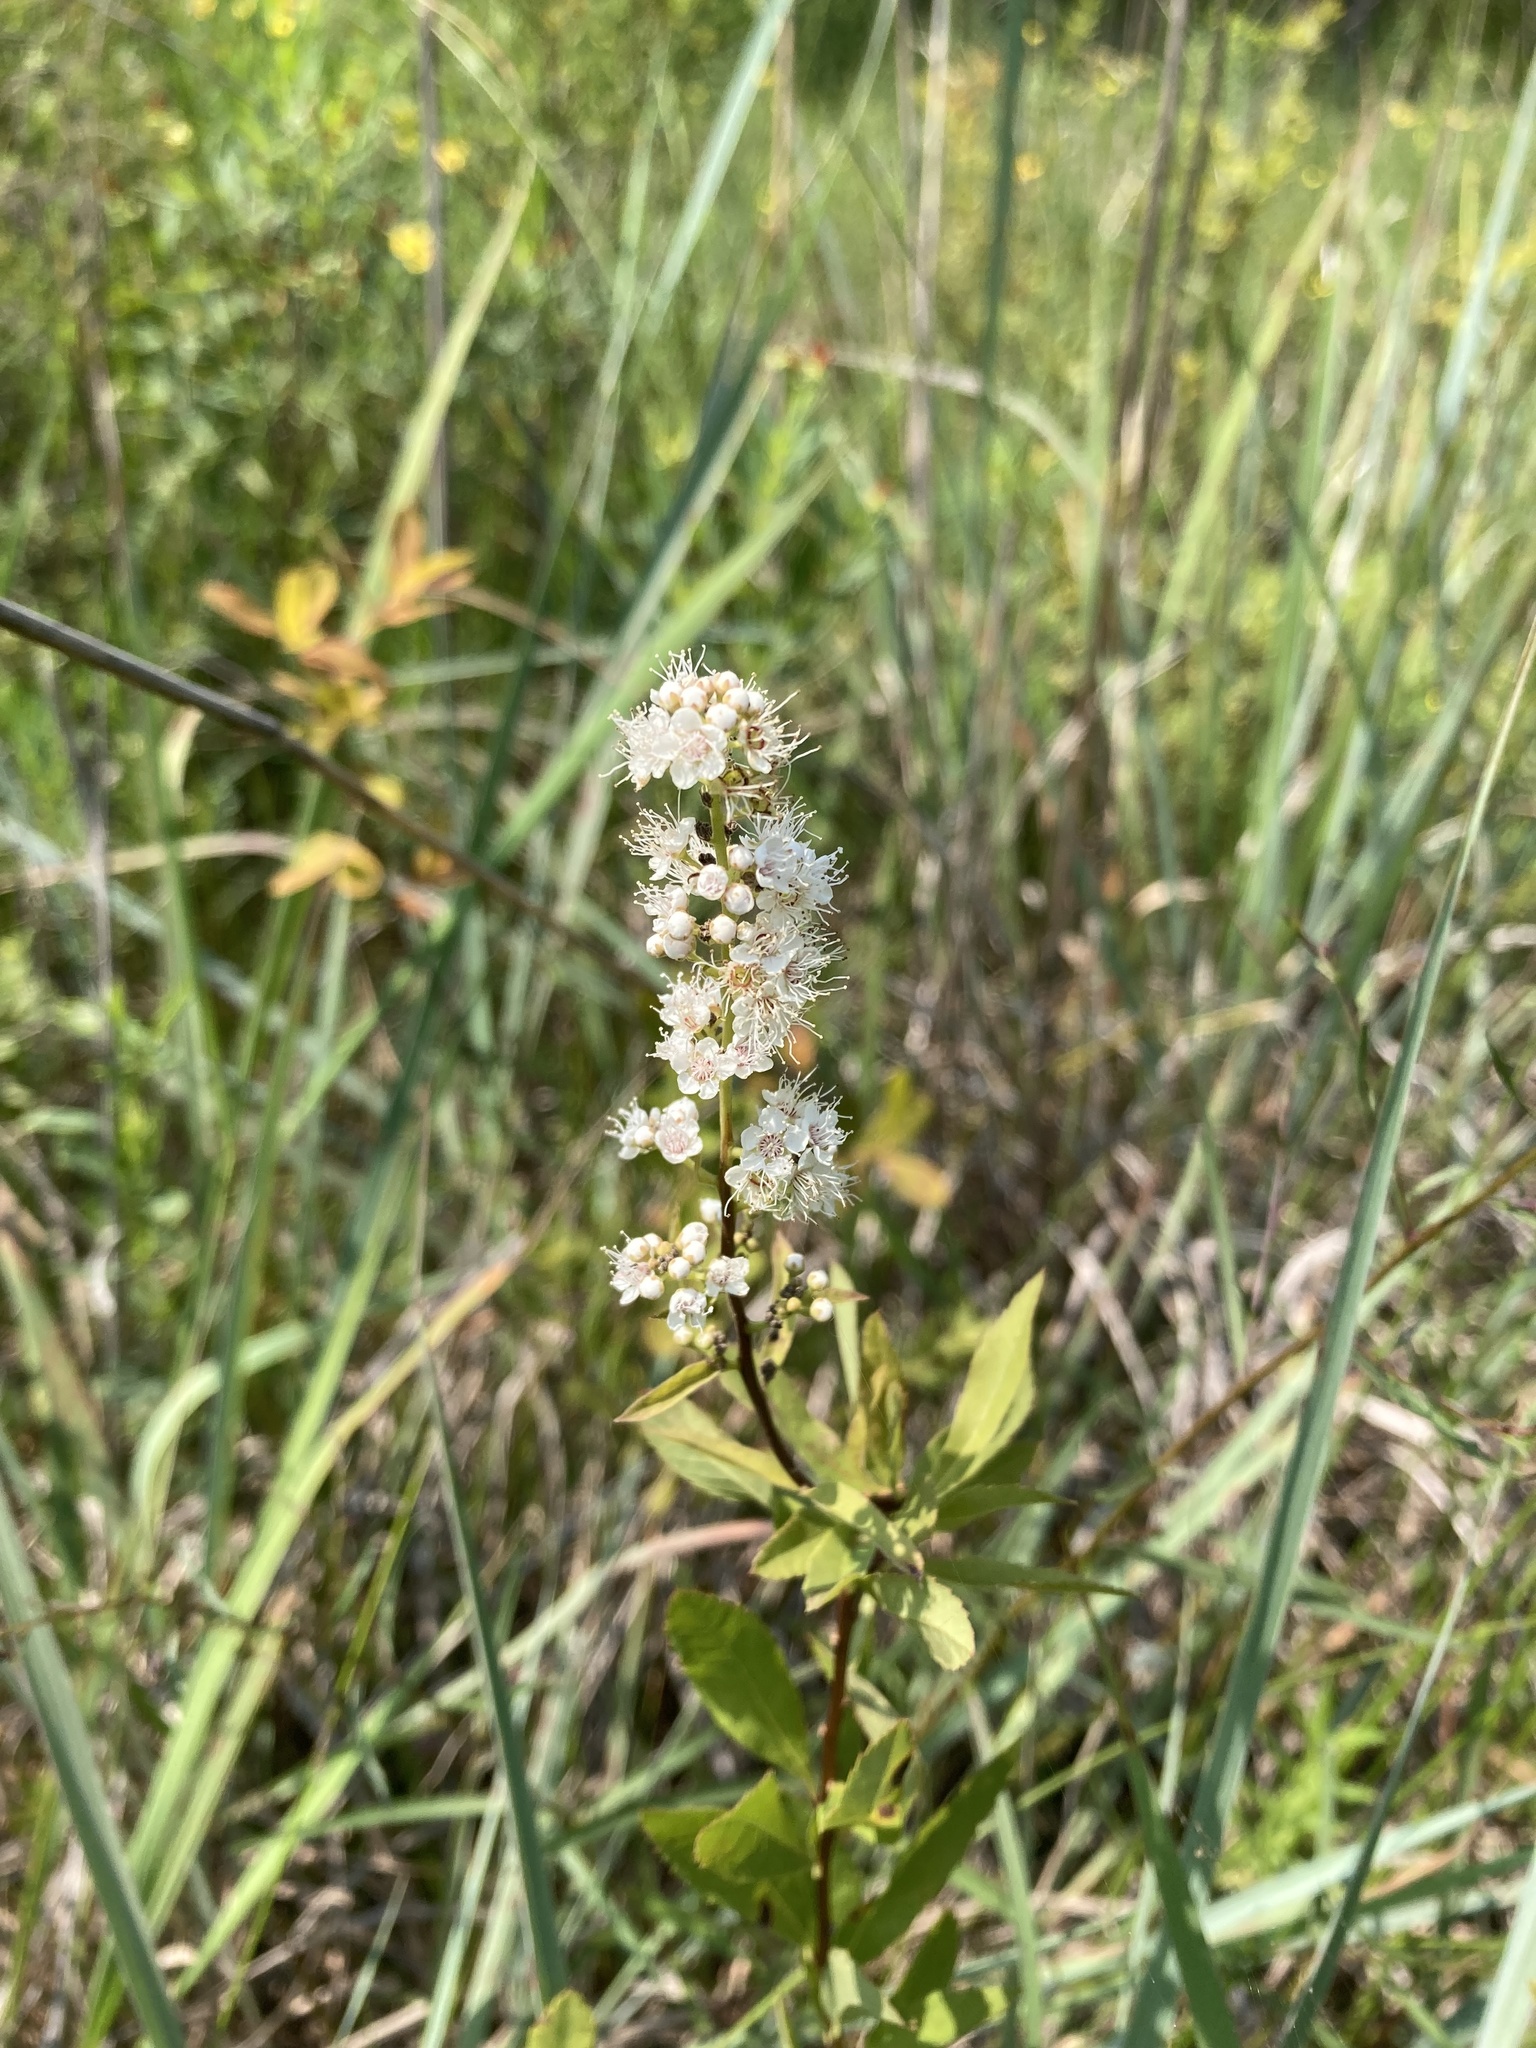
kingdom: Plantae
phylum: Tracheophyta
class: Magnoliopsida
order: Rosales
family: Rosaceae
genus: Spiraea
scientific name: Spiraea alba
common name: Pale bridewort
